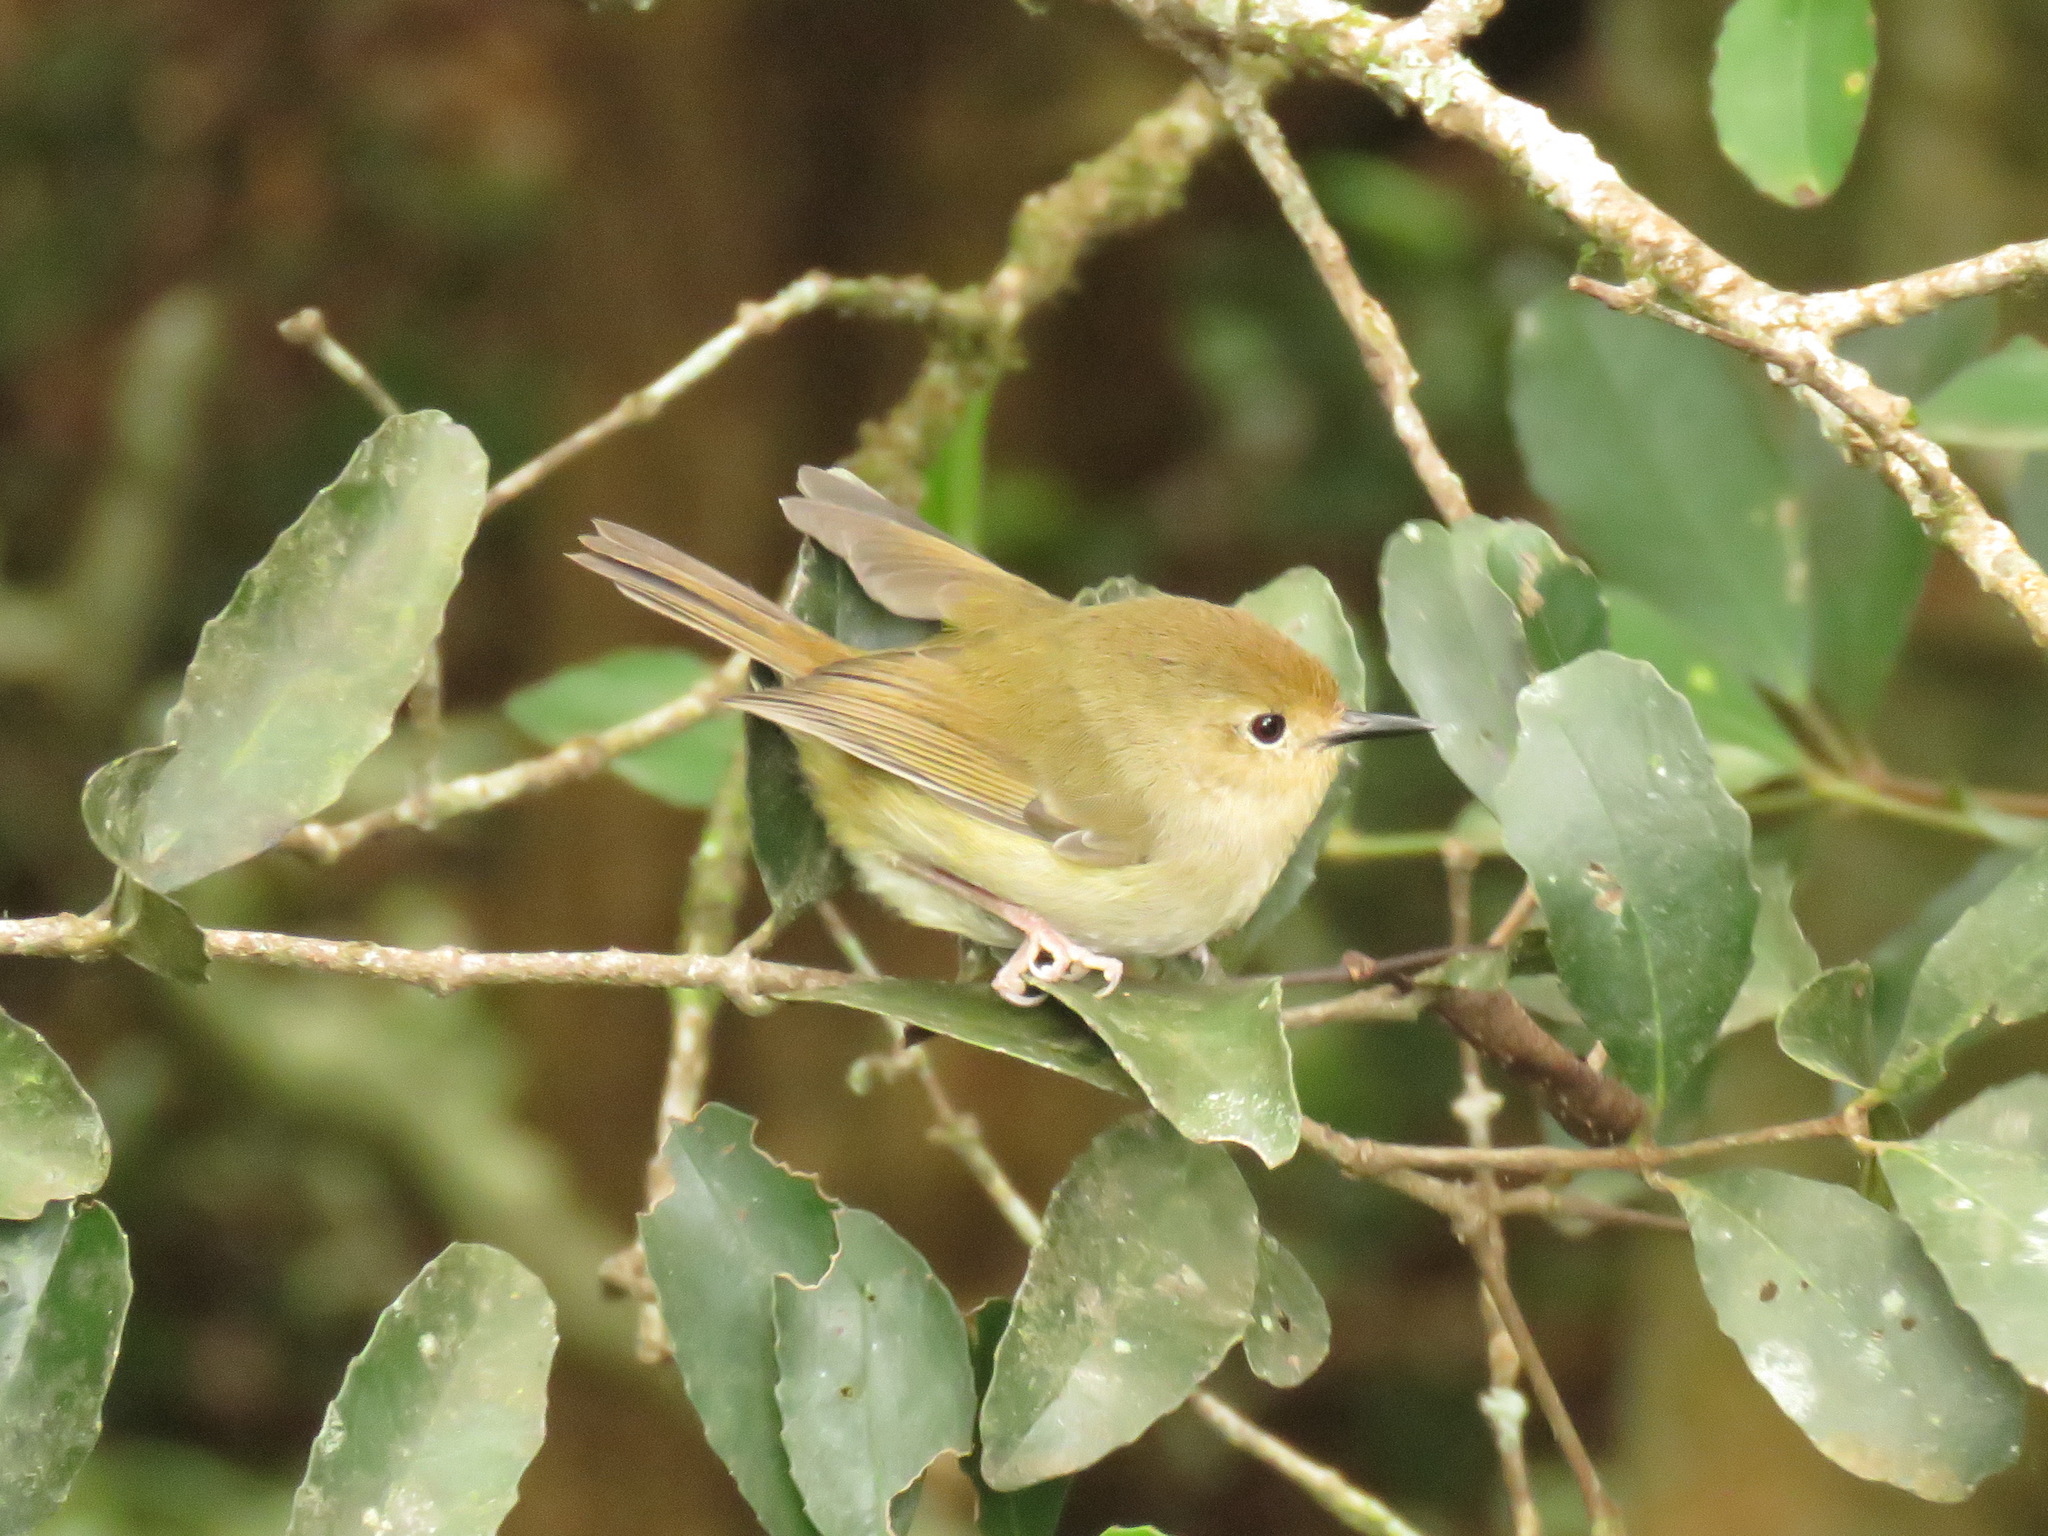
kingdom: Animalia
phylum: Chordata
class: Aves
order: Passeriformes
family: Acanthizidae
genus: Sericornis
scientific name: Sericornis magnirostra
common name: Large-billed scrubwren
